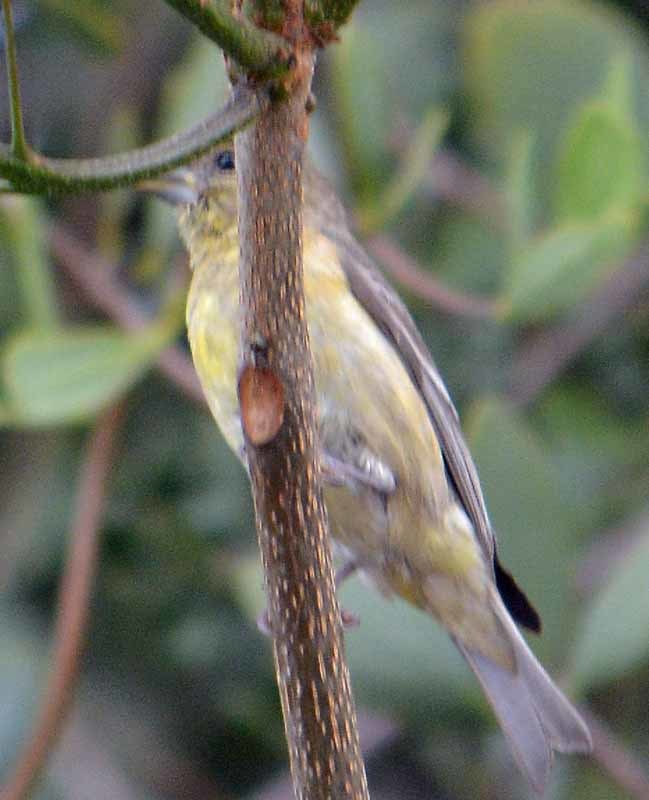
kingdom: Animalia
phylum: Chordata
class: Aves
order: Passeriformes
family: Fringillidae
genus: Spinus
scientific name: Spinus psaltria
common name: Lesser goldfinch
